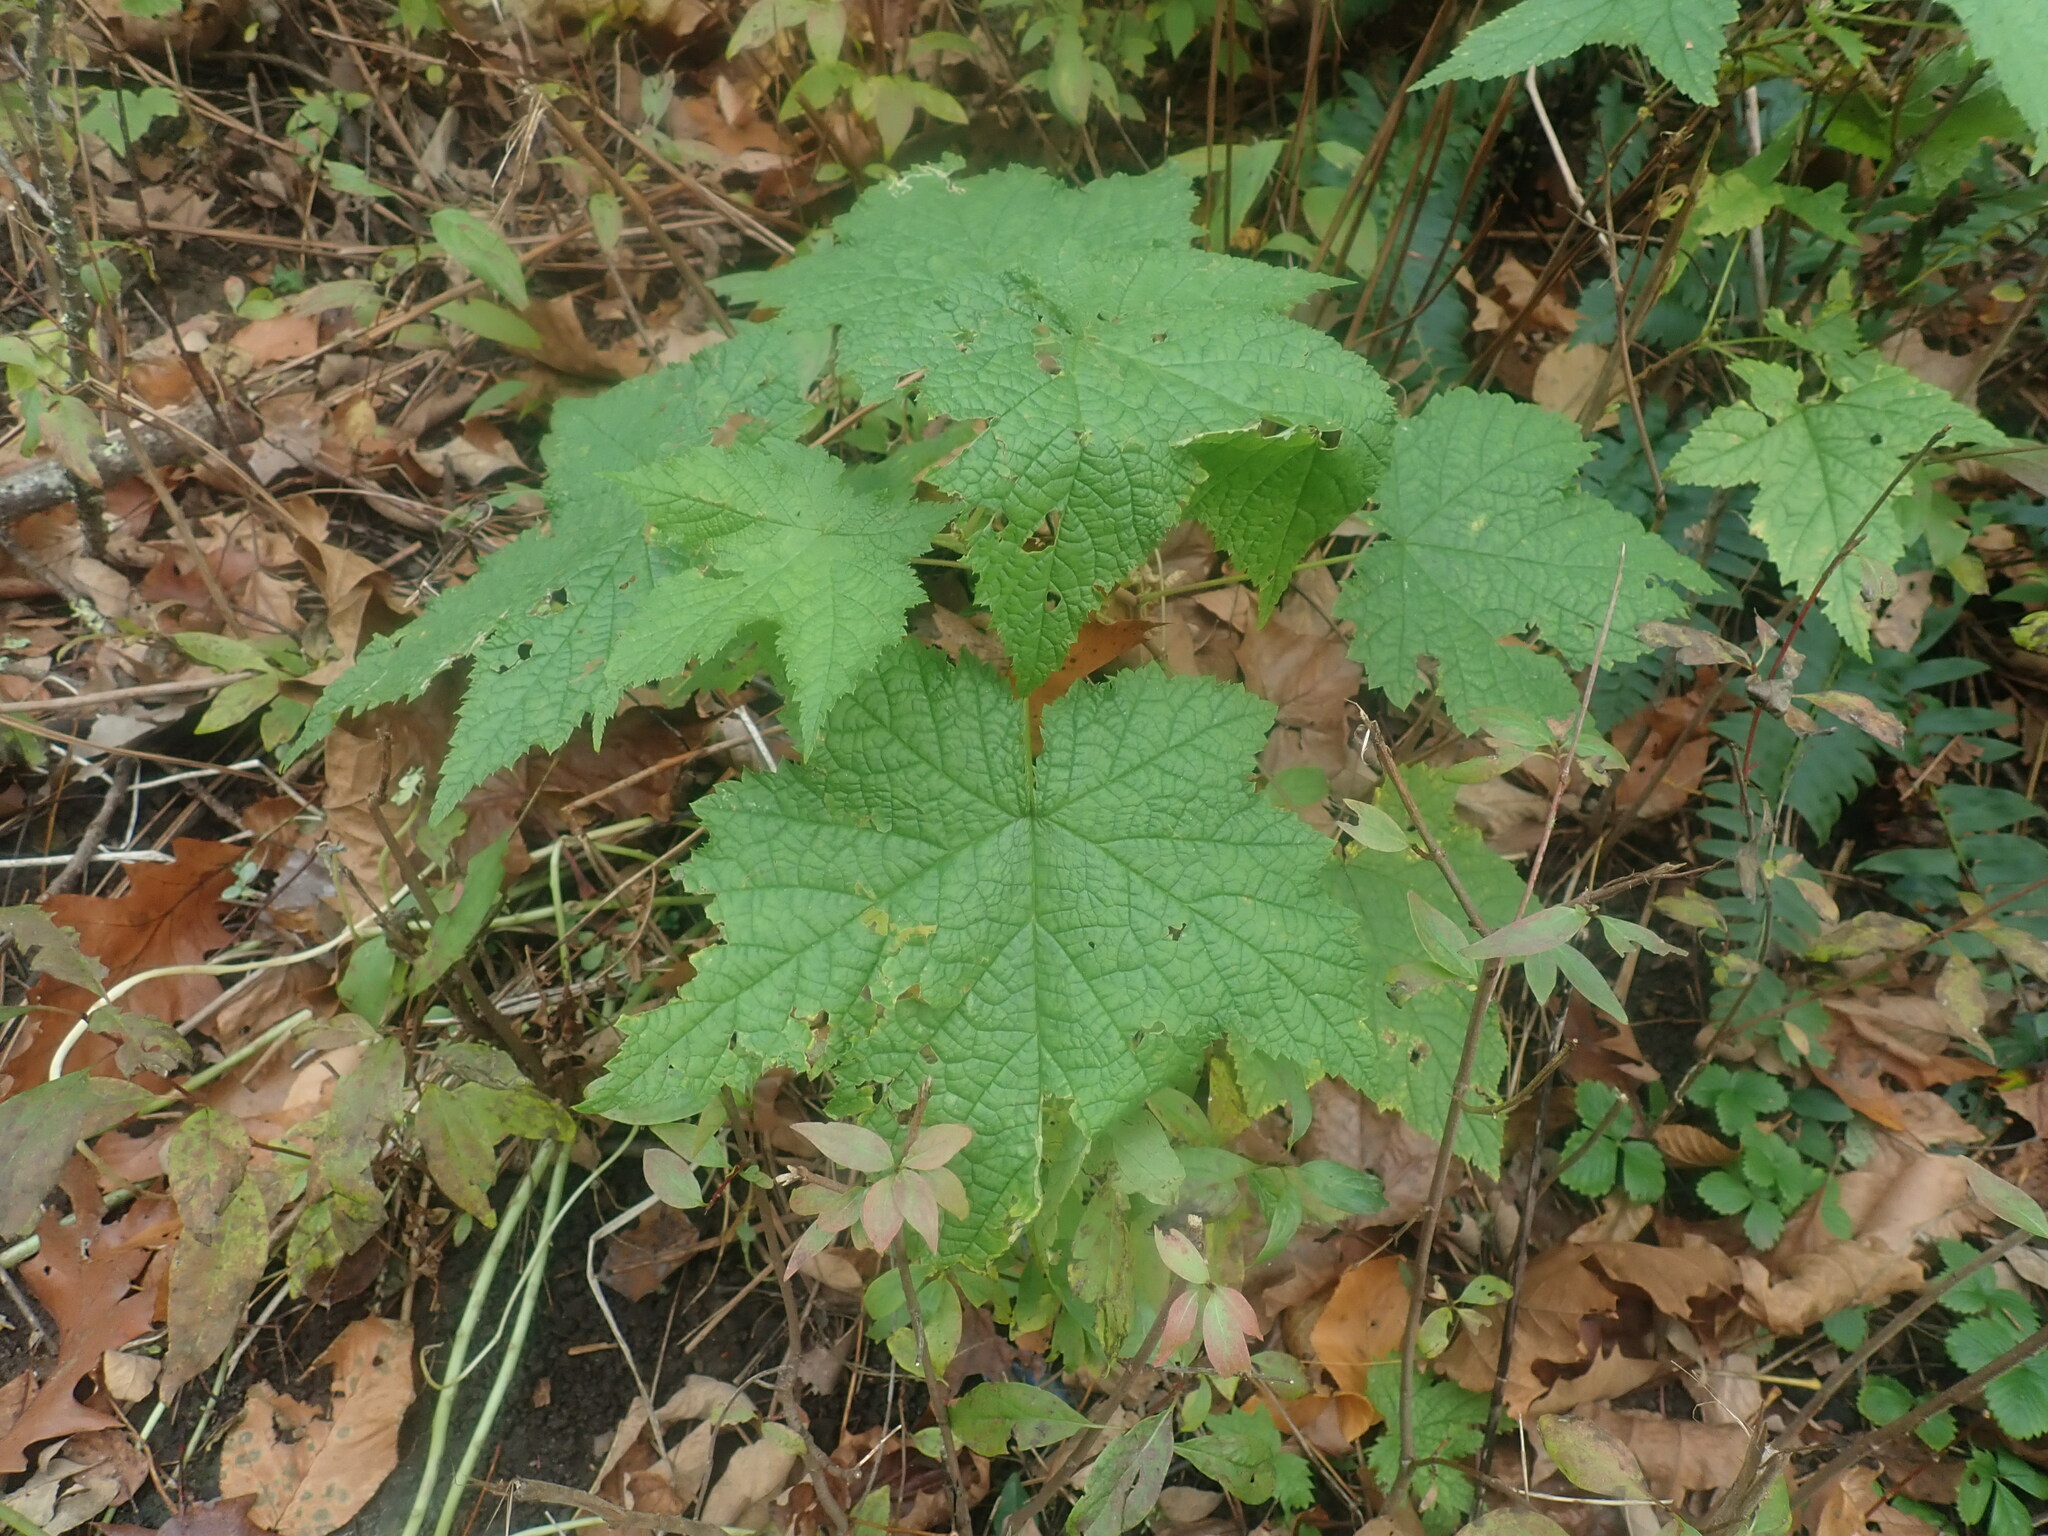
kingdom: Plantae
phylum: Tracheophyta
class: Magnoliopsida
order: Rosales
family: Rosaceae
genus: Rubus
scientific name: Rubus odoratus
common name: Purple-flowered raspberry
